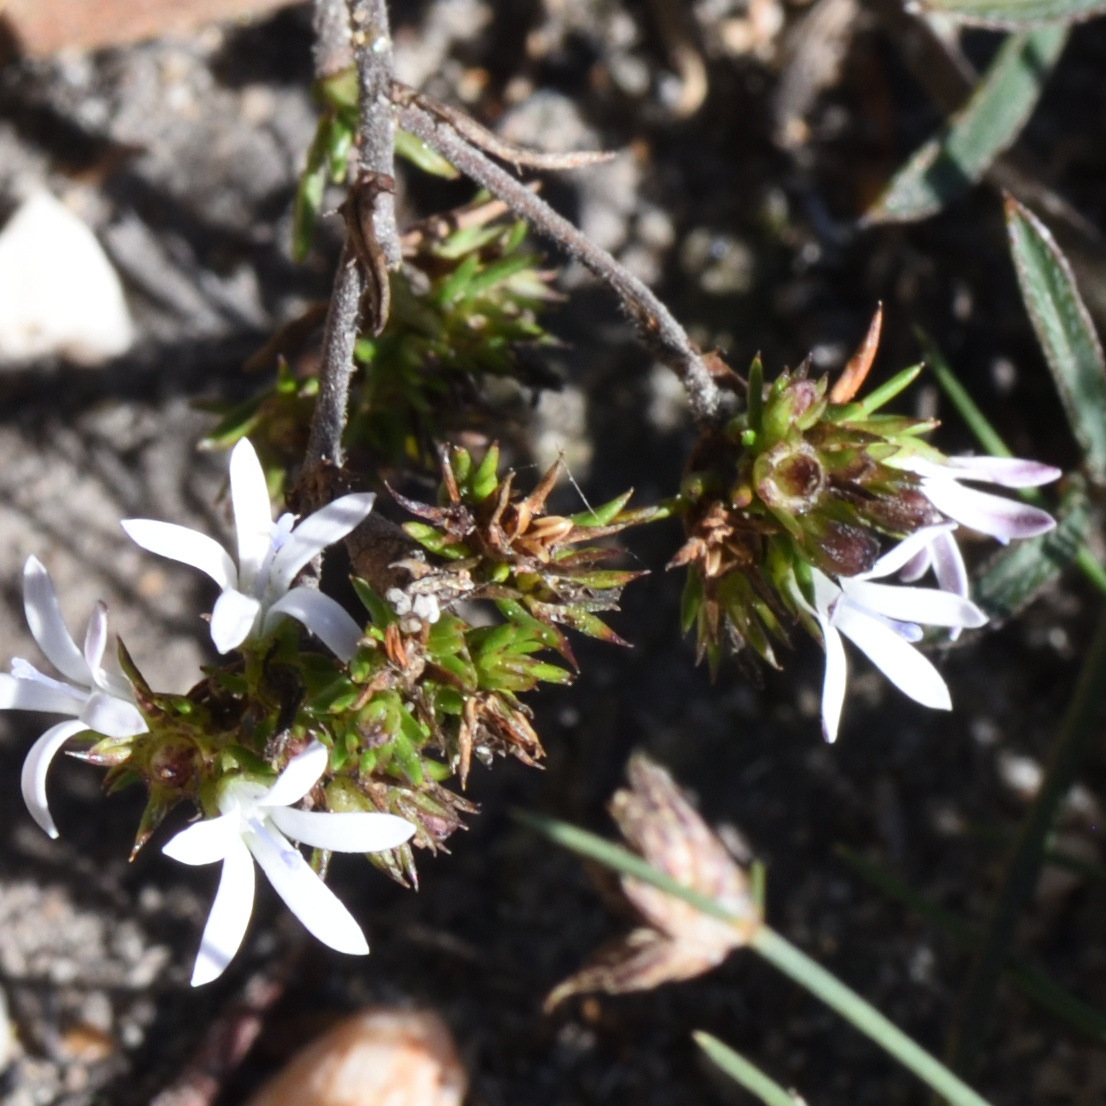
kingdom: Plantae
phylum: Tracheophyta
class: Magnoliopsida
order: Asterales
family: Campanulaceae
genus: Roella
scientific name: Roella spicata
